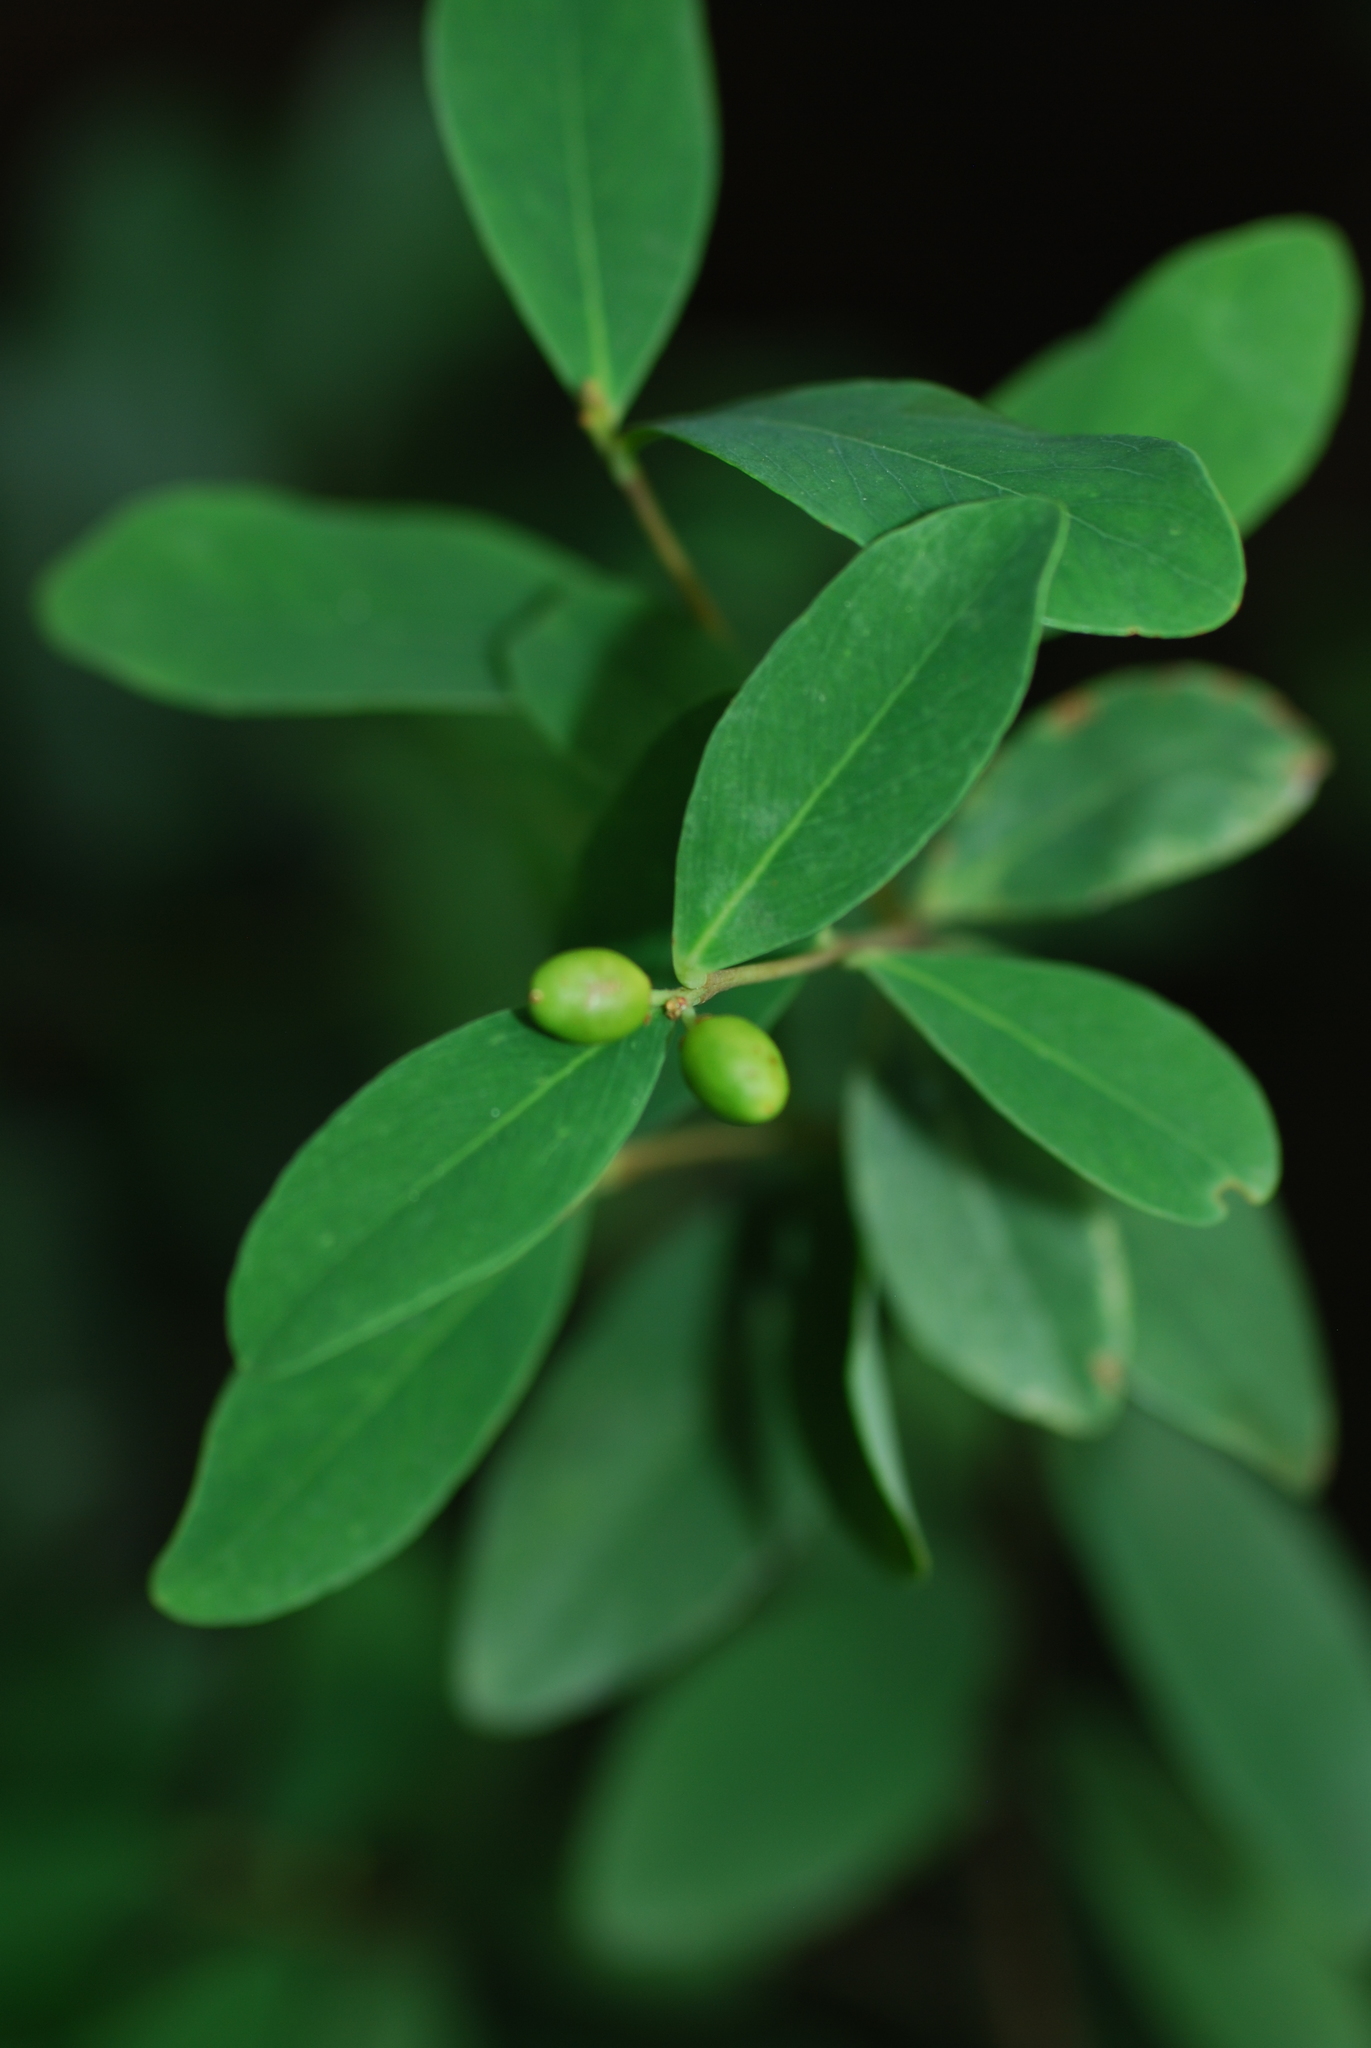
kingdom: Plantae
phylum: Tracheophyta
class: Magnoliopsida
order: Malvales
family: Thymelaeaceae
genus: Wikstroemia
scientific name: Wikstroemia indica
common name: Tiebush
